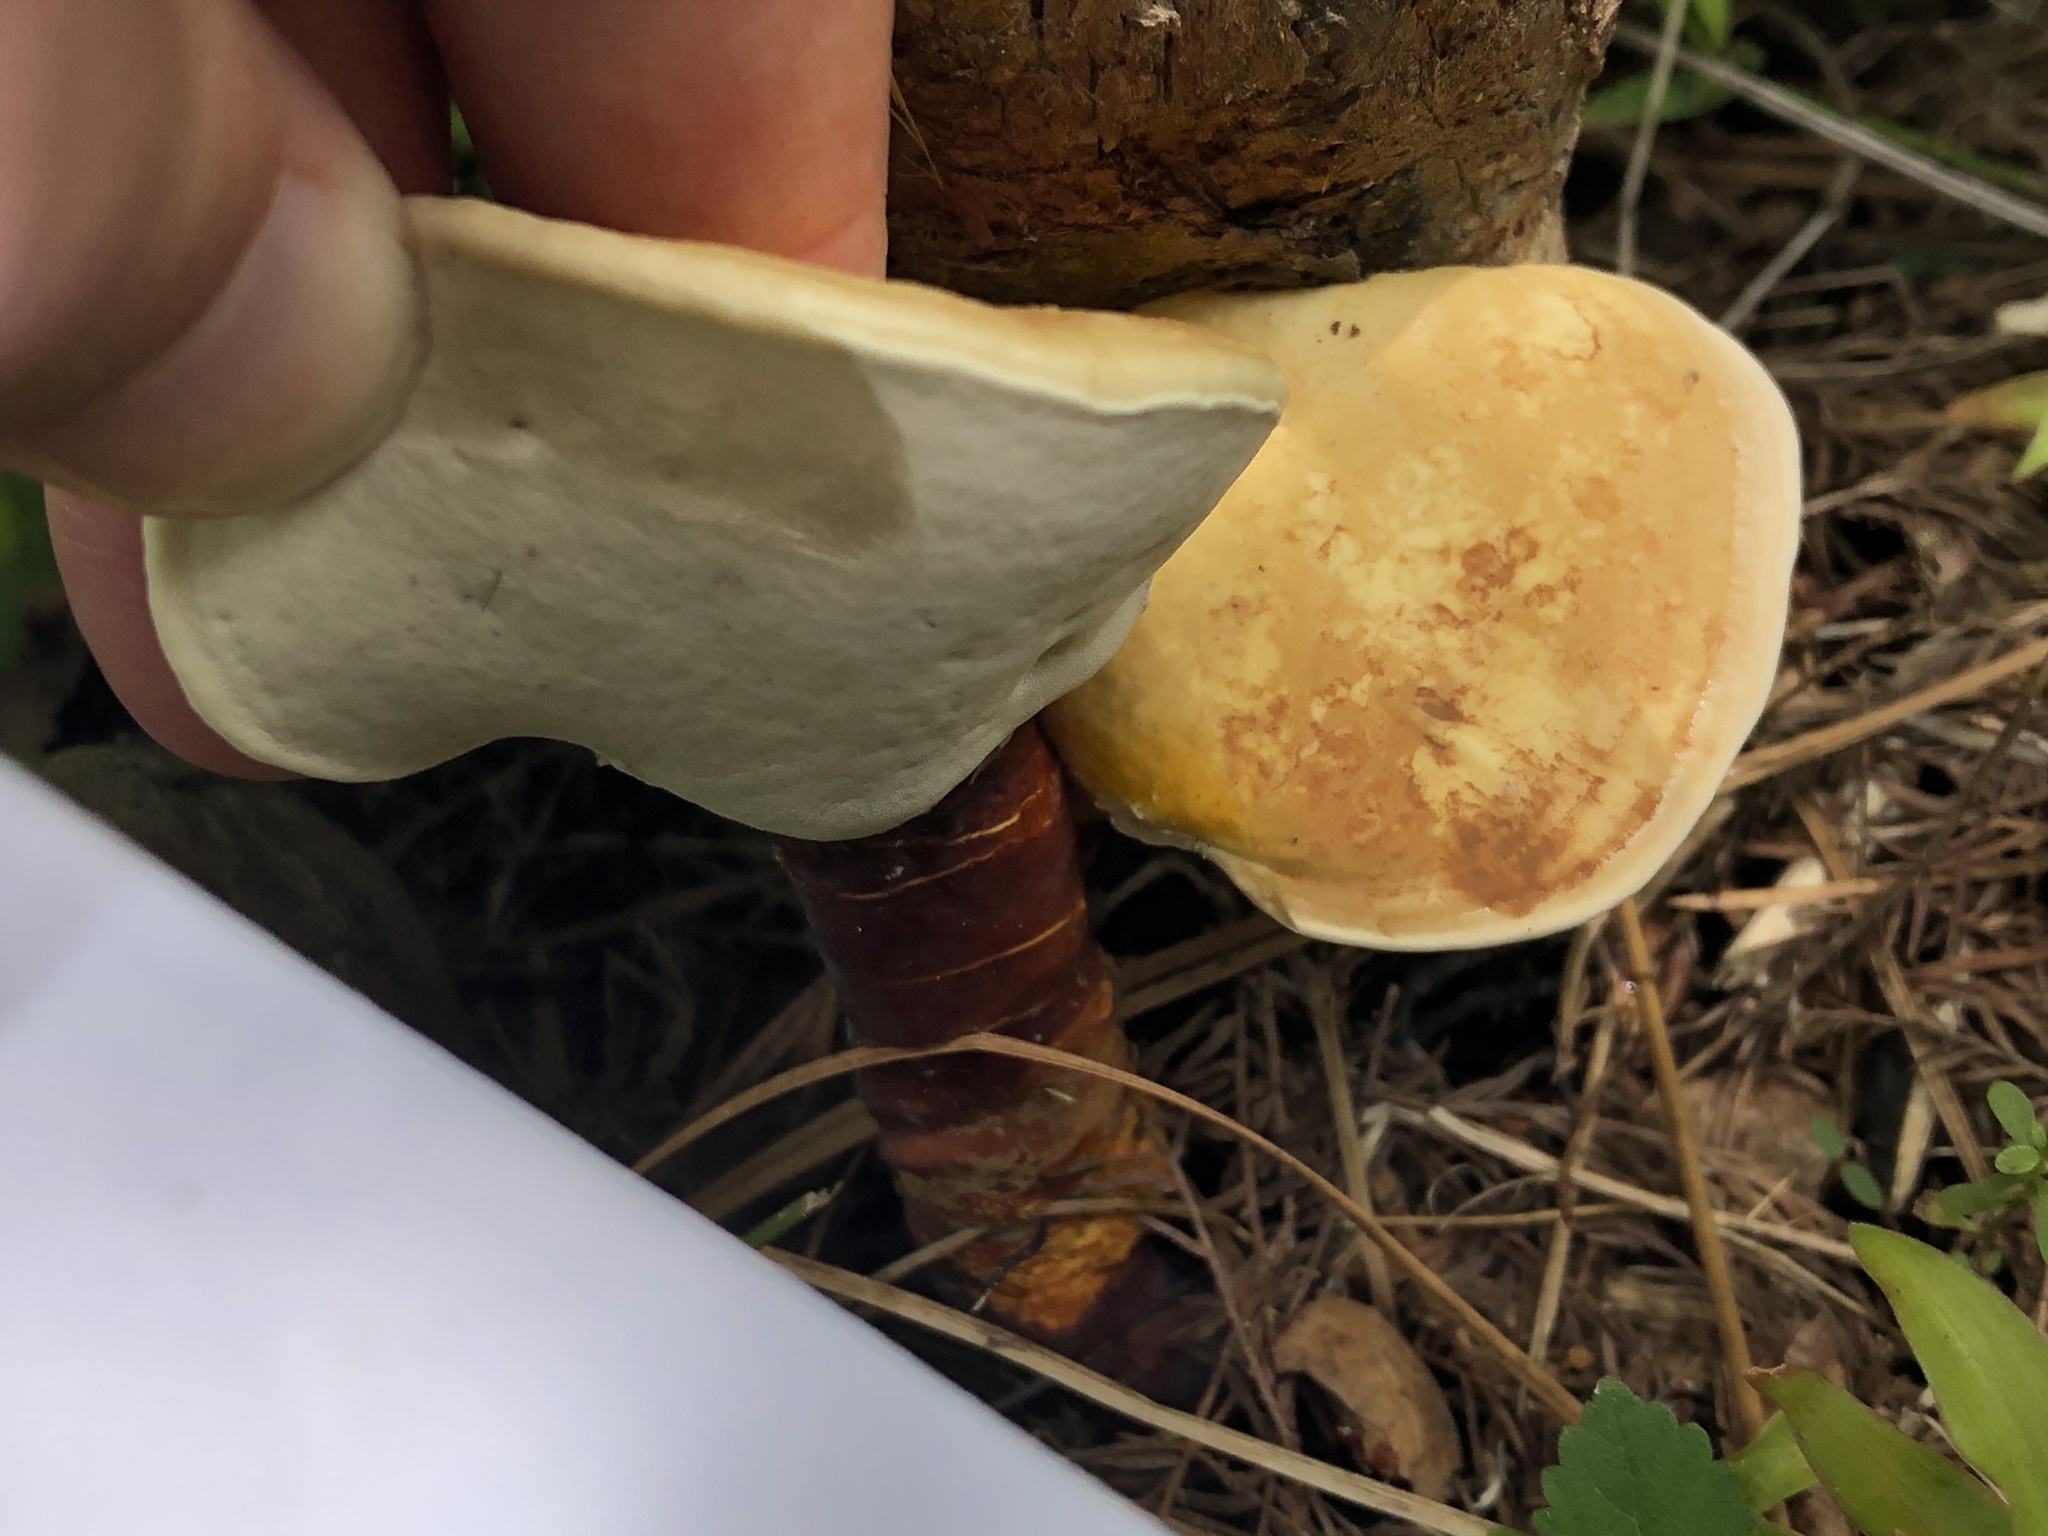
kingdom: Fungi
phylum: Basidiomycota
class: Agaricomycetes
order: Polyporales
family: Polyporaceae
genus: Ganoderma
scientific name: Ganoderma curtisii
